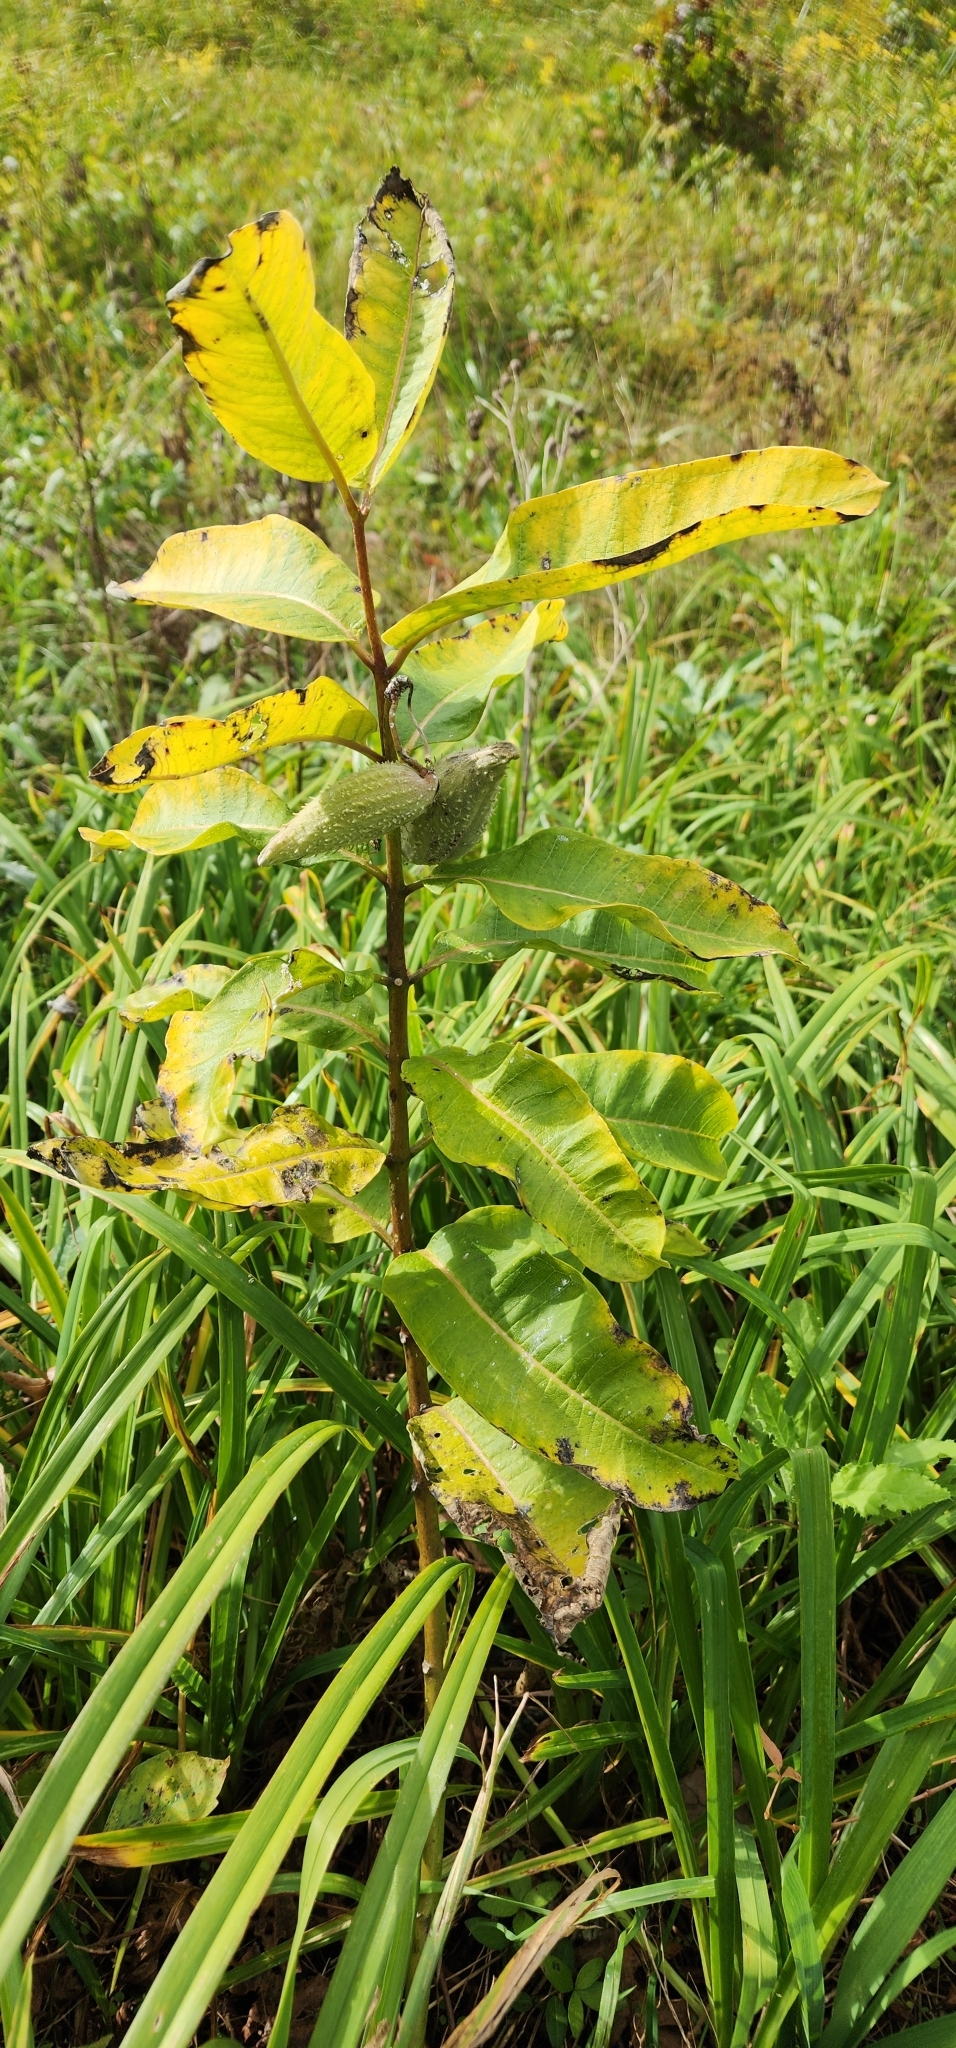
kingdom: Plantae
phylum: Tracheophyta
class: Magnoliopsida
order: Gentianales
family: Apocynaceae
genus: Asclepias
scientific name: Asclepias syriaca
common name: Common milkweed
